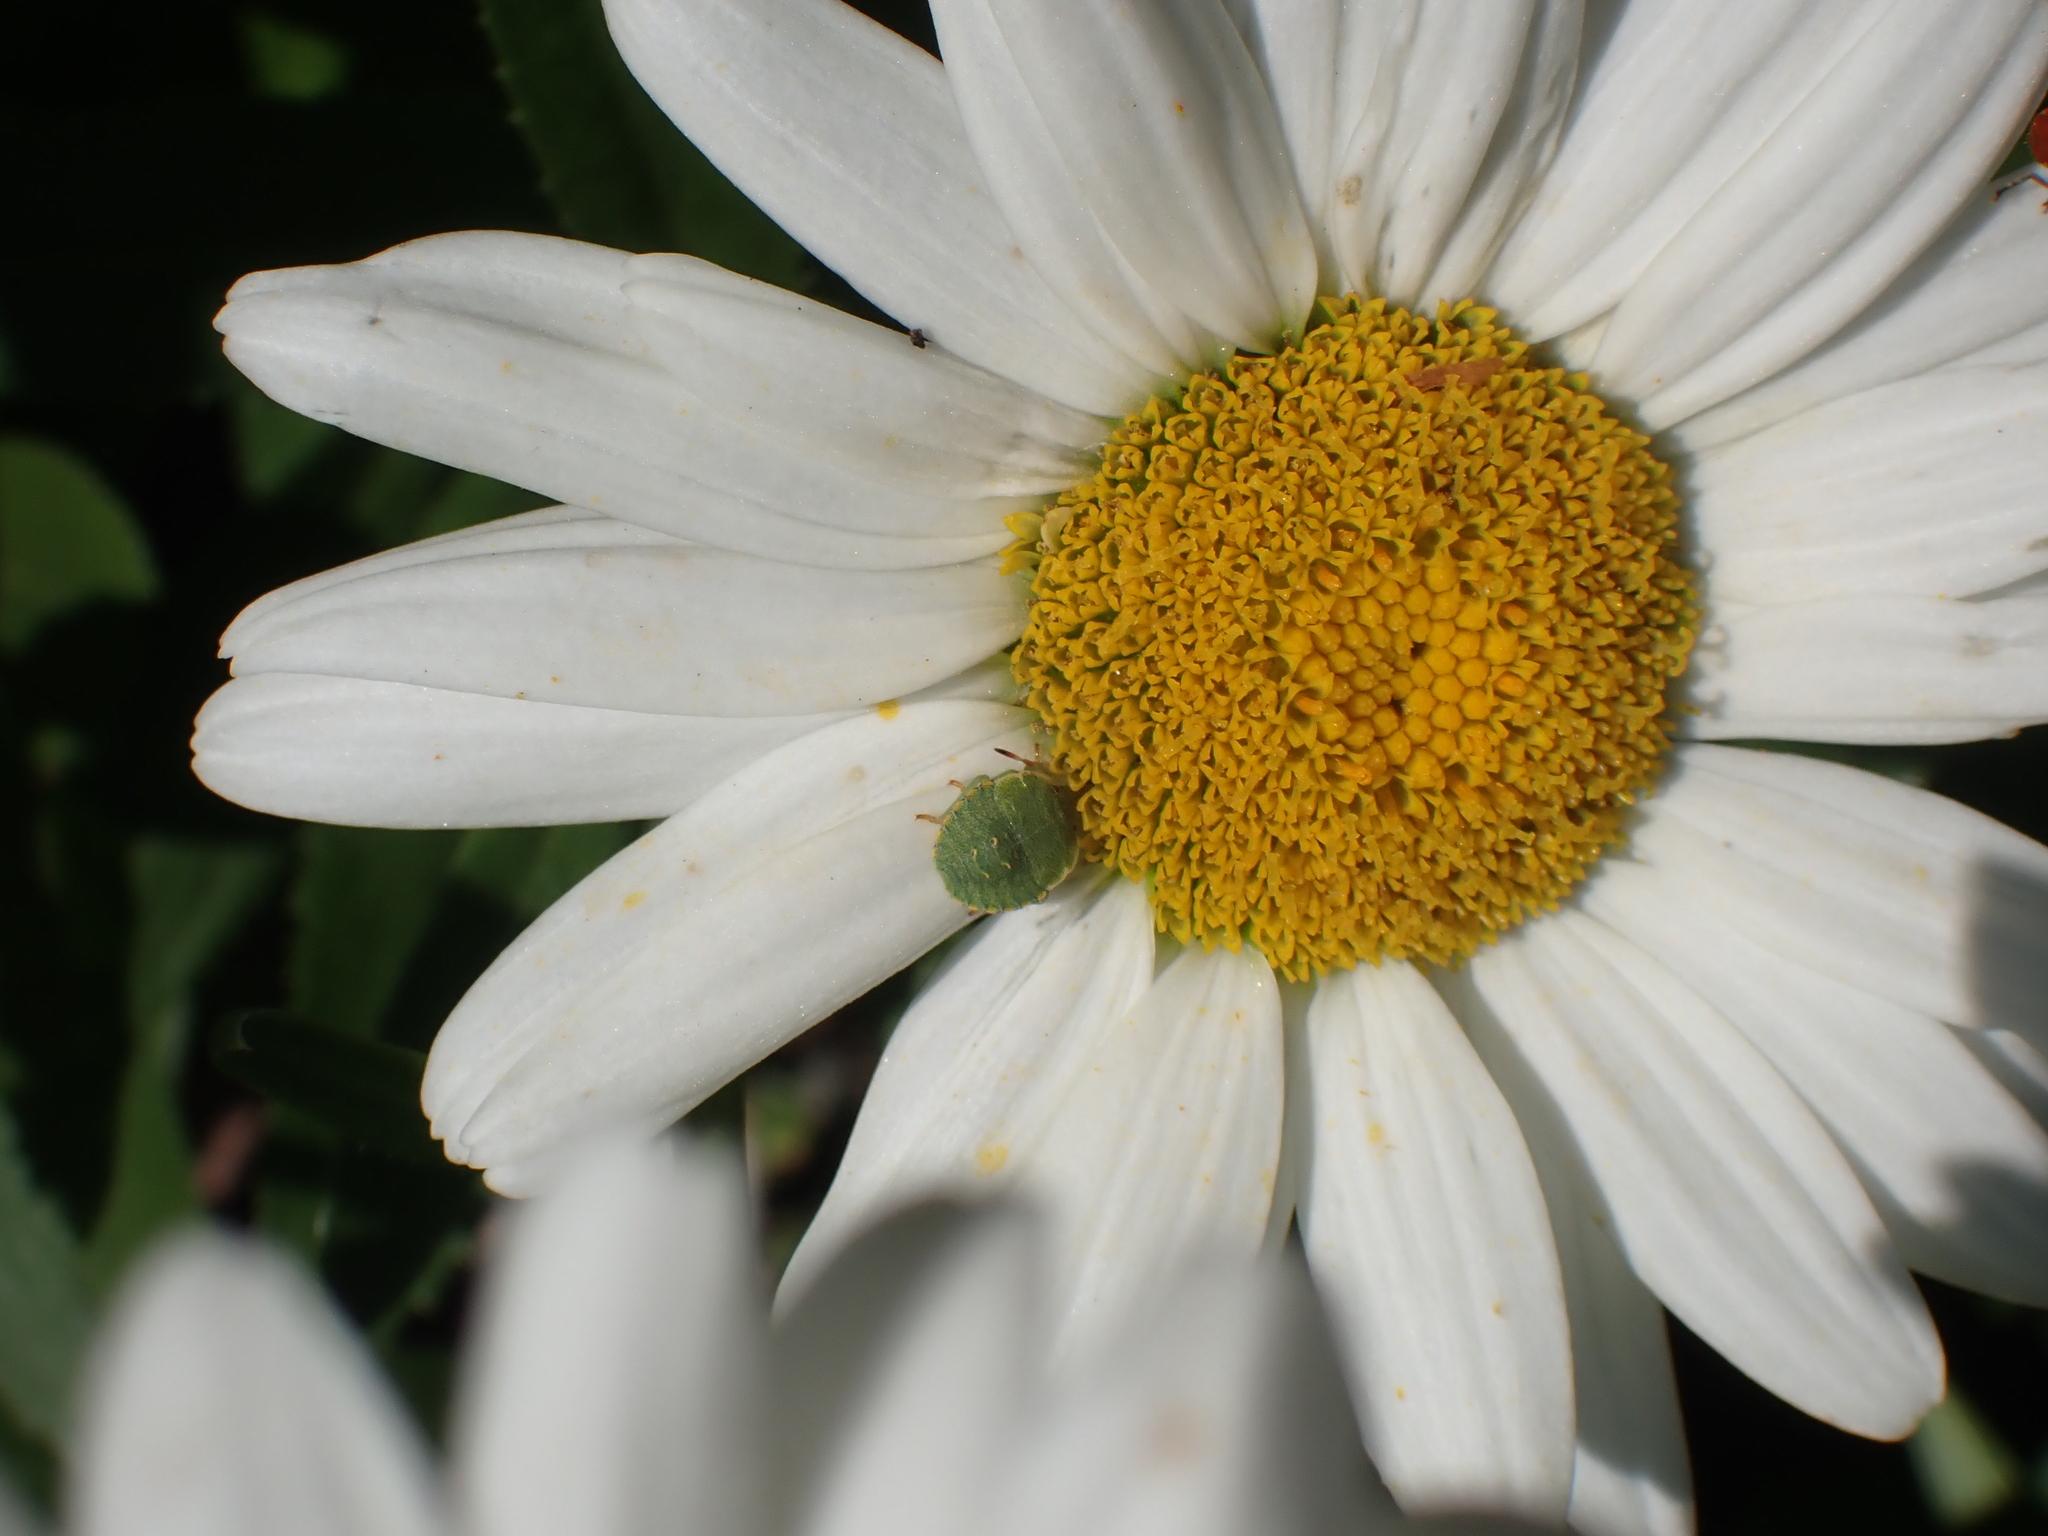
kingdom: Animalia
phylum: Arthropoda
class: Insecta
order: Hemiptera
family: Pentatomidae
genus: Palomena
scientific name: Palomena prasina
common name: Green shieldbug
